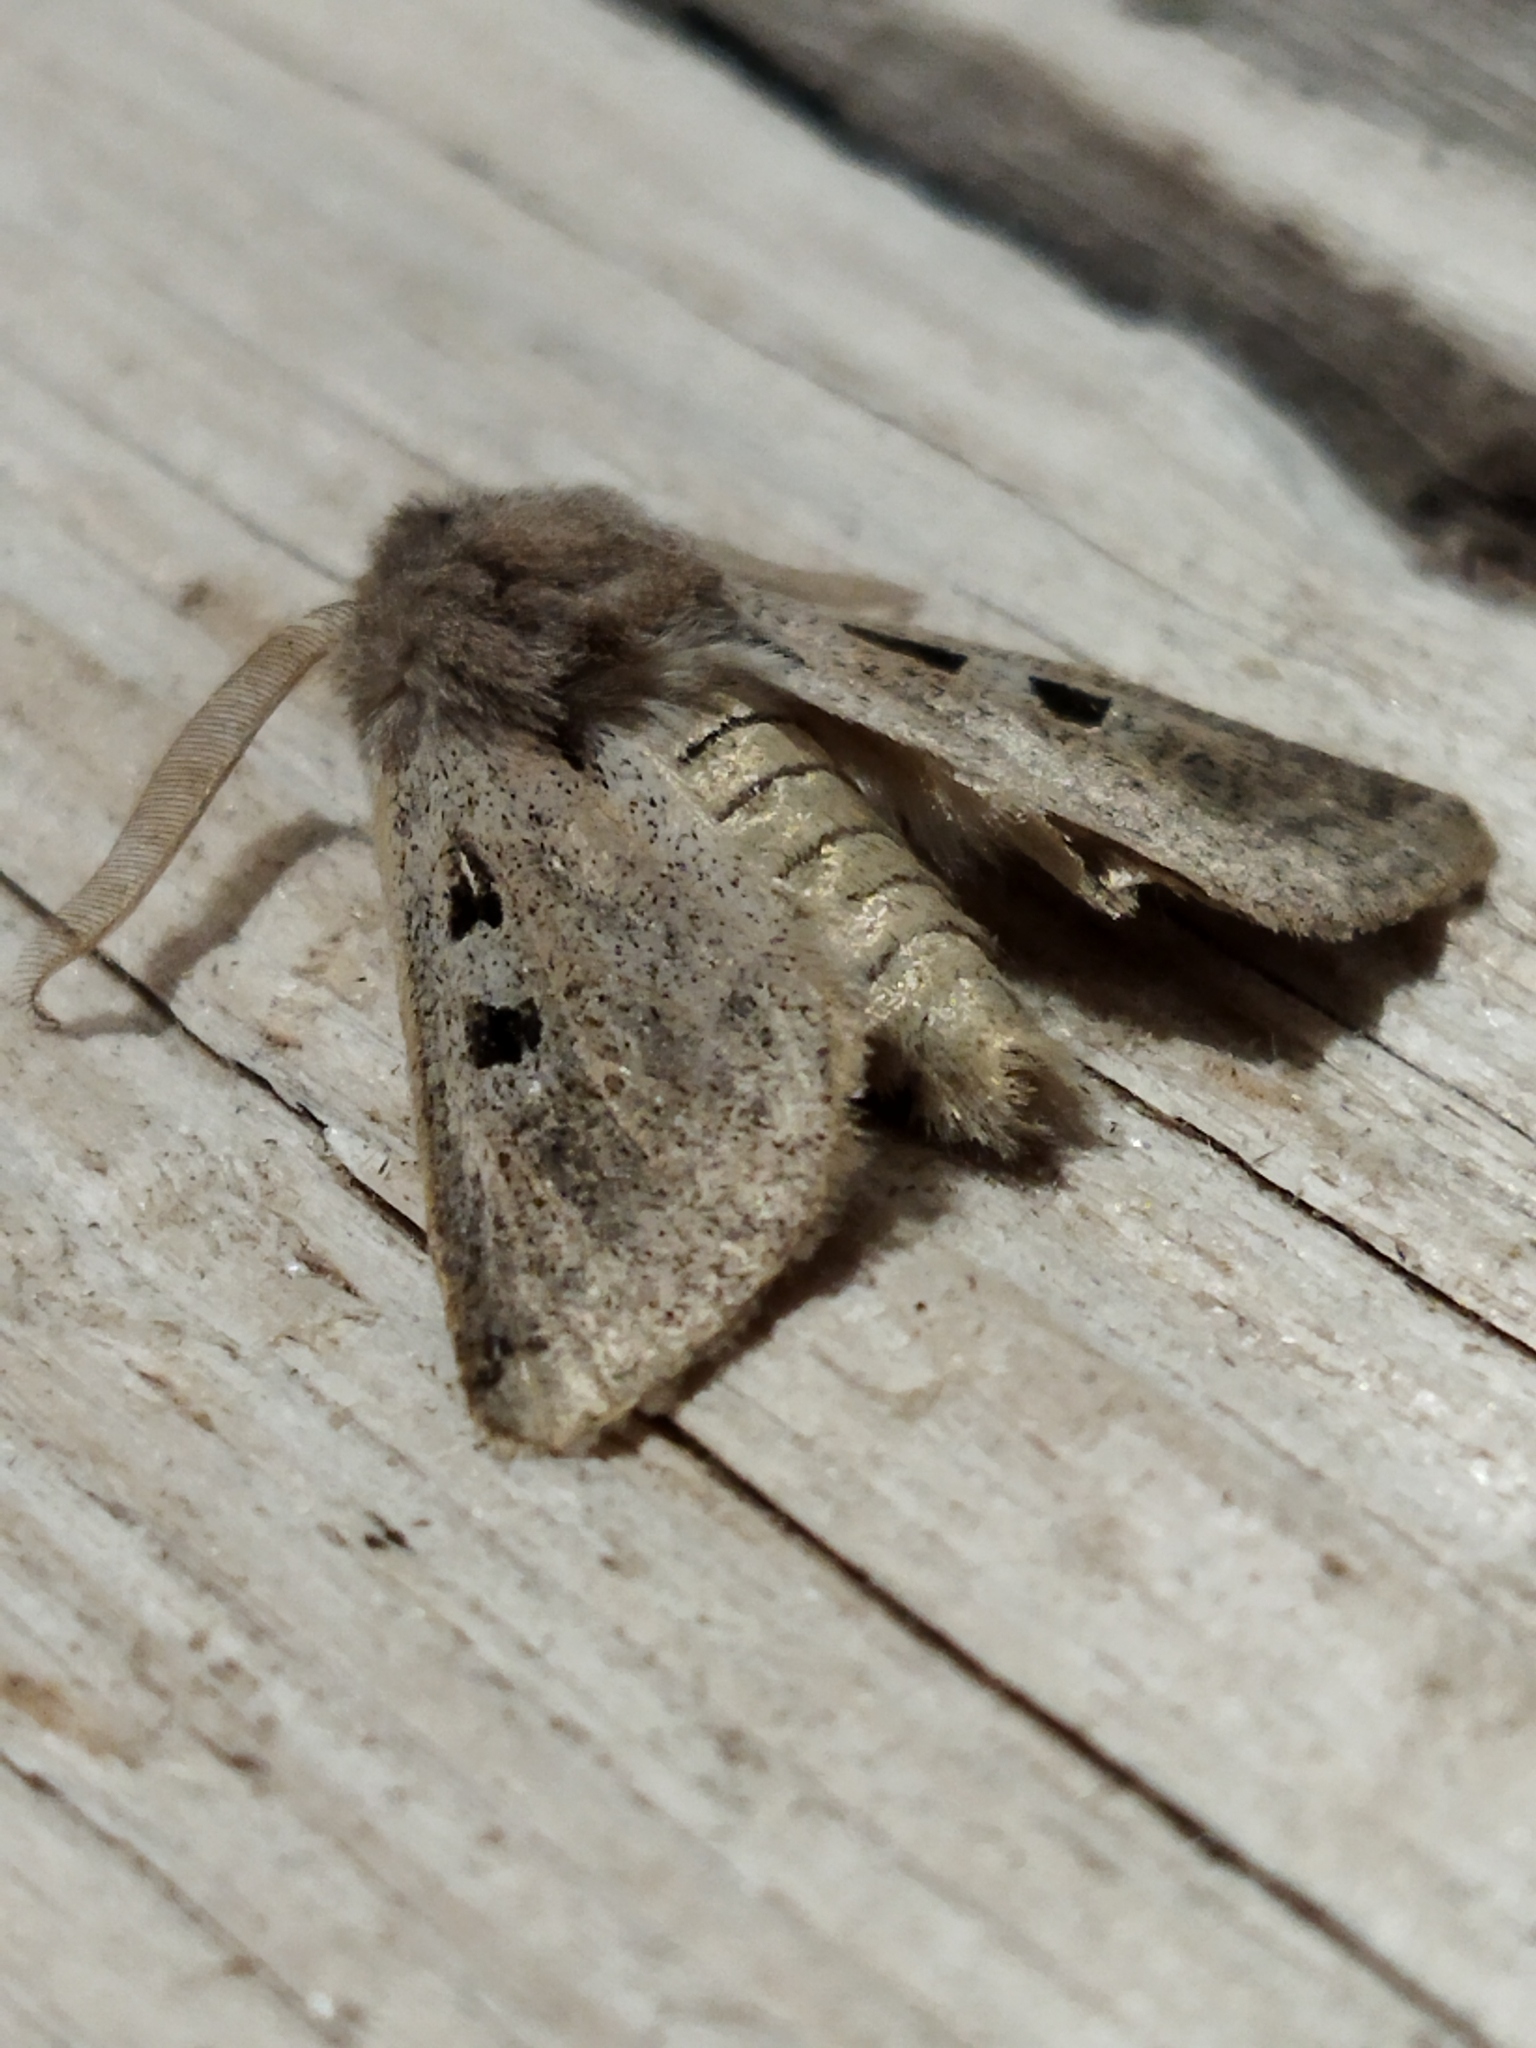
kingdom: Animalia
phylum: Arthropoda
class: Insecta
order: Lepidoptera
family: Noctuidae
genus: Episema
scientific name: Episema tersa
